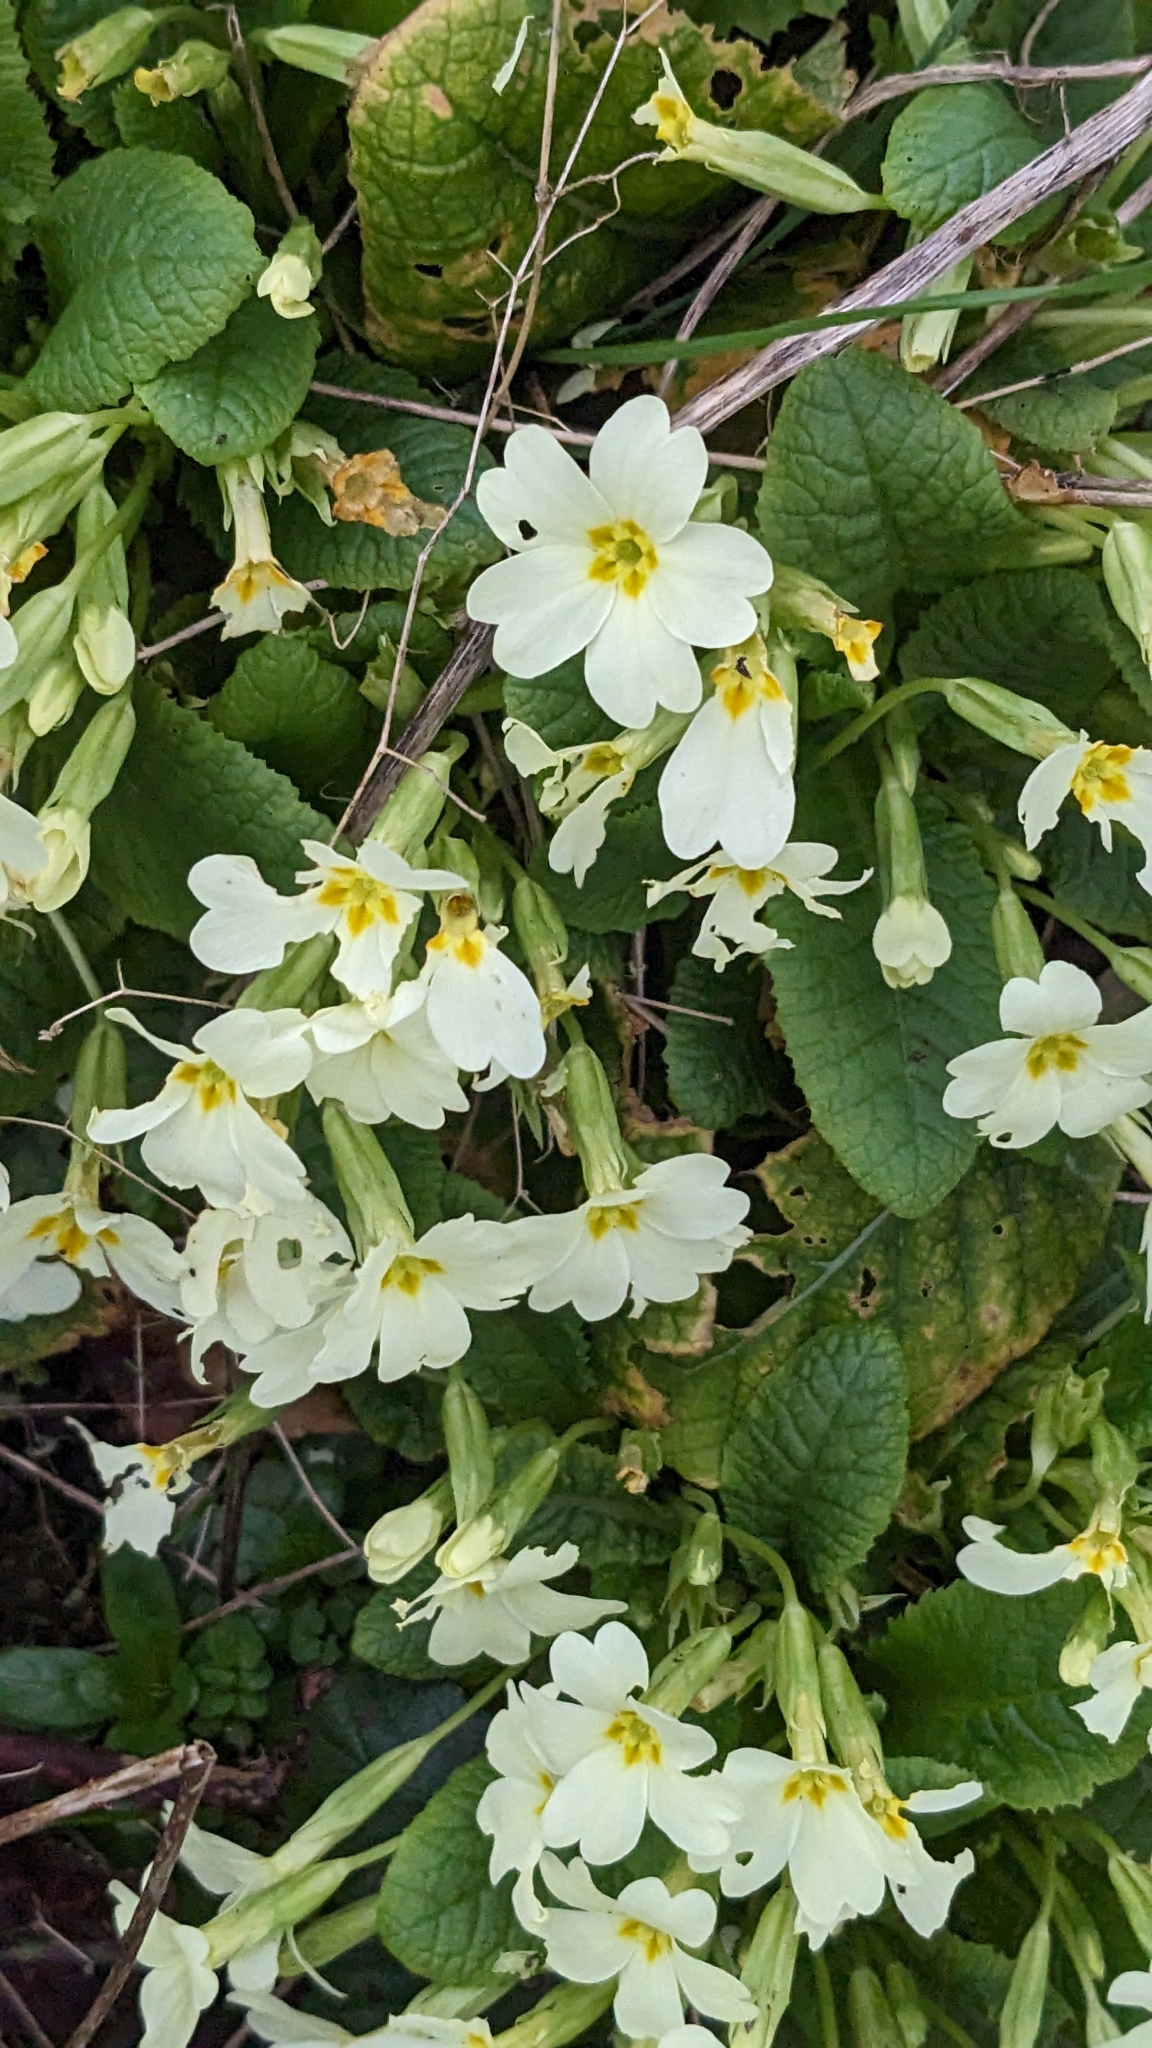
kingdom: Plantae
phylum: Tracheophyta
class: Magnoliopsida
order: Ericales
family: Primulaceae
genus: Primula
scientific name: Primula vulgaris
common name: Primrose
